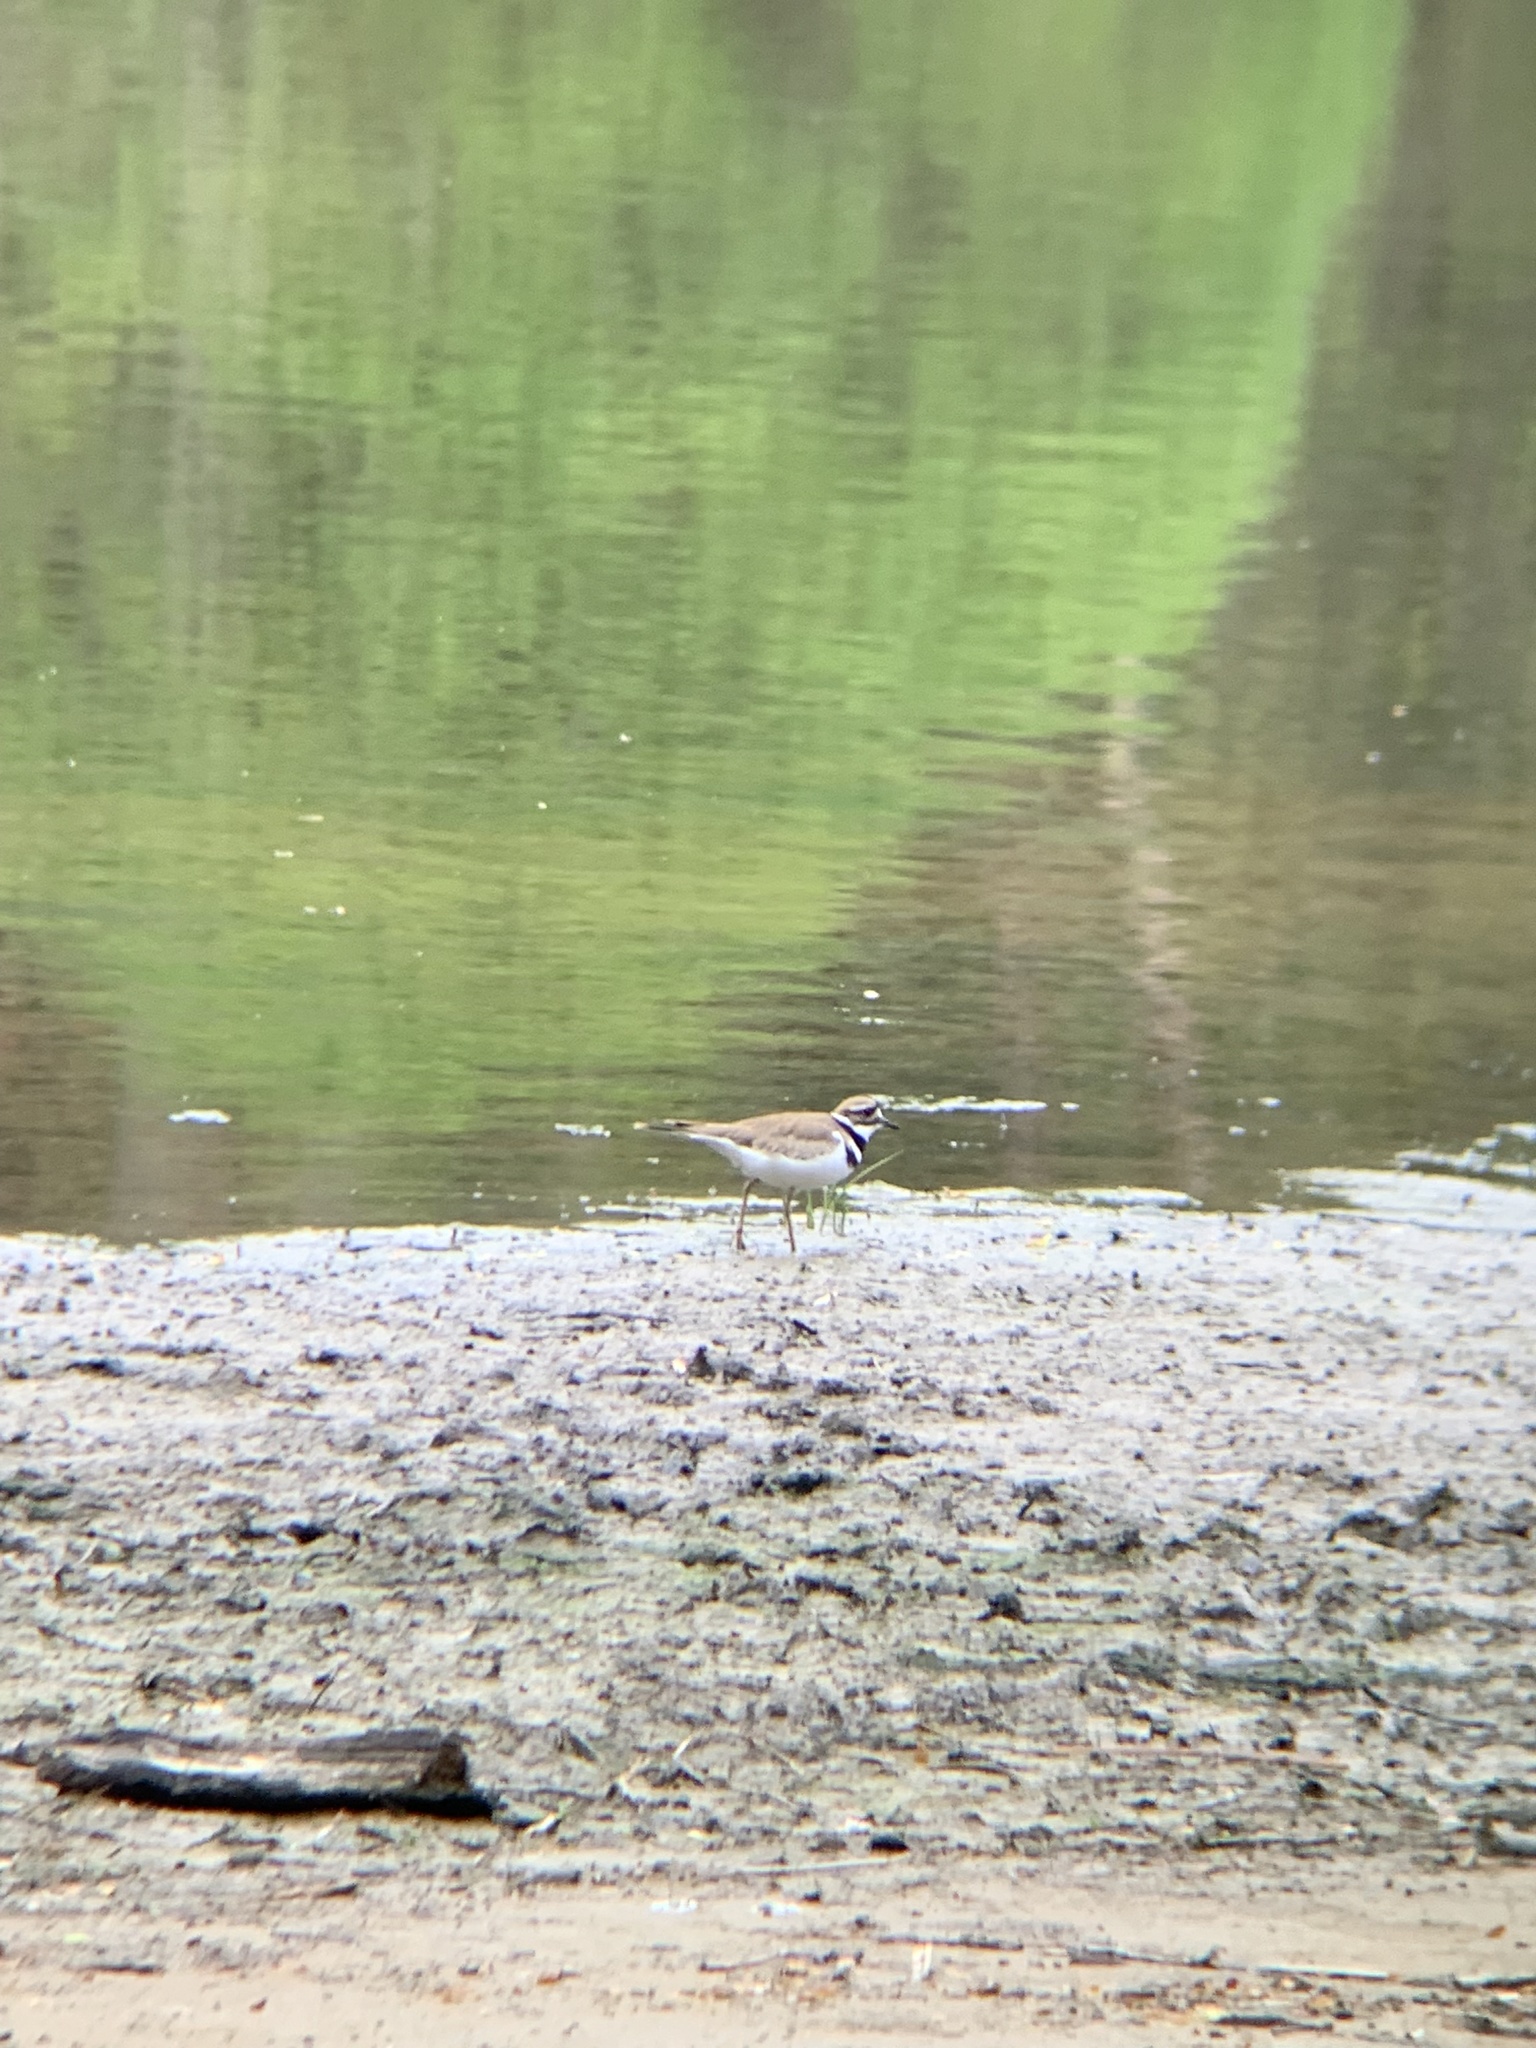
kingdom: Animalia
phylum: Chordata
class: Aves
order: Charadriiformes
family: Charadriidae
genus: Charadrius
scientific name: Charadrius vociferus
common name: Killdeer
